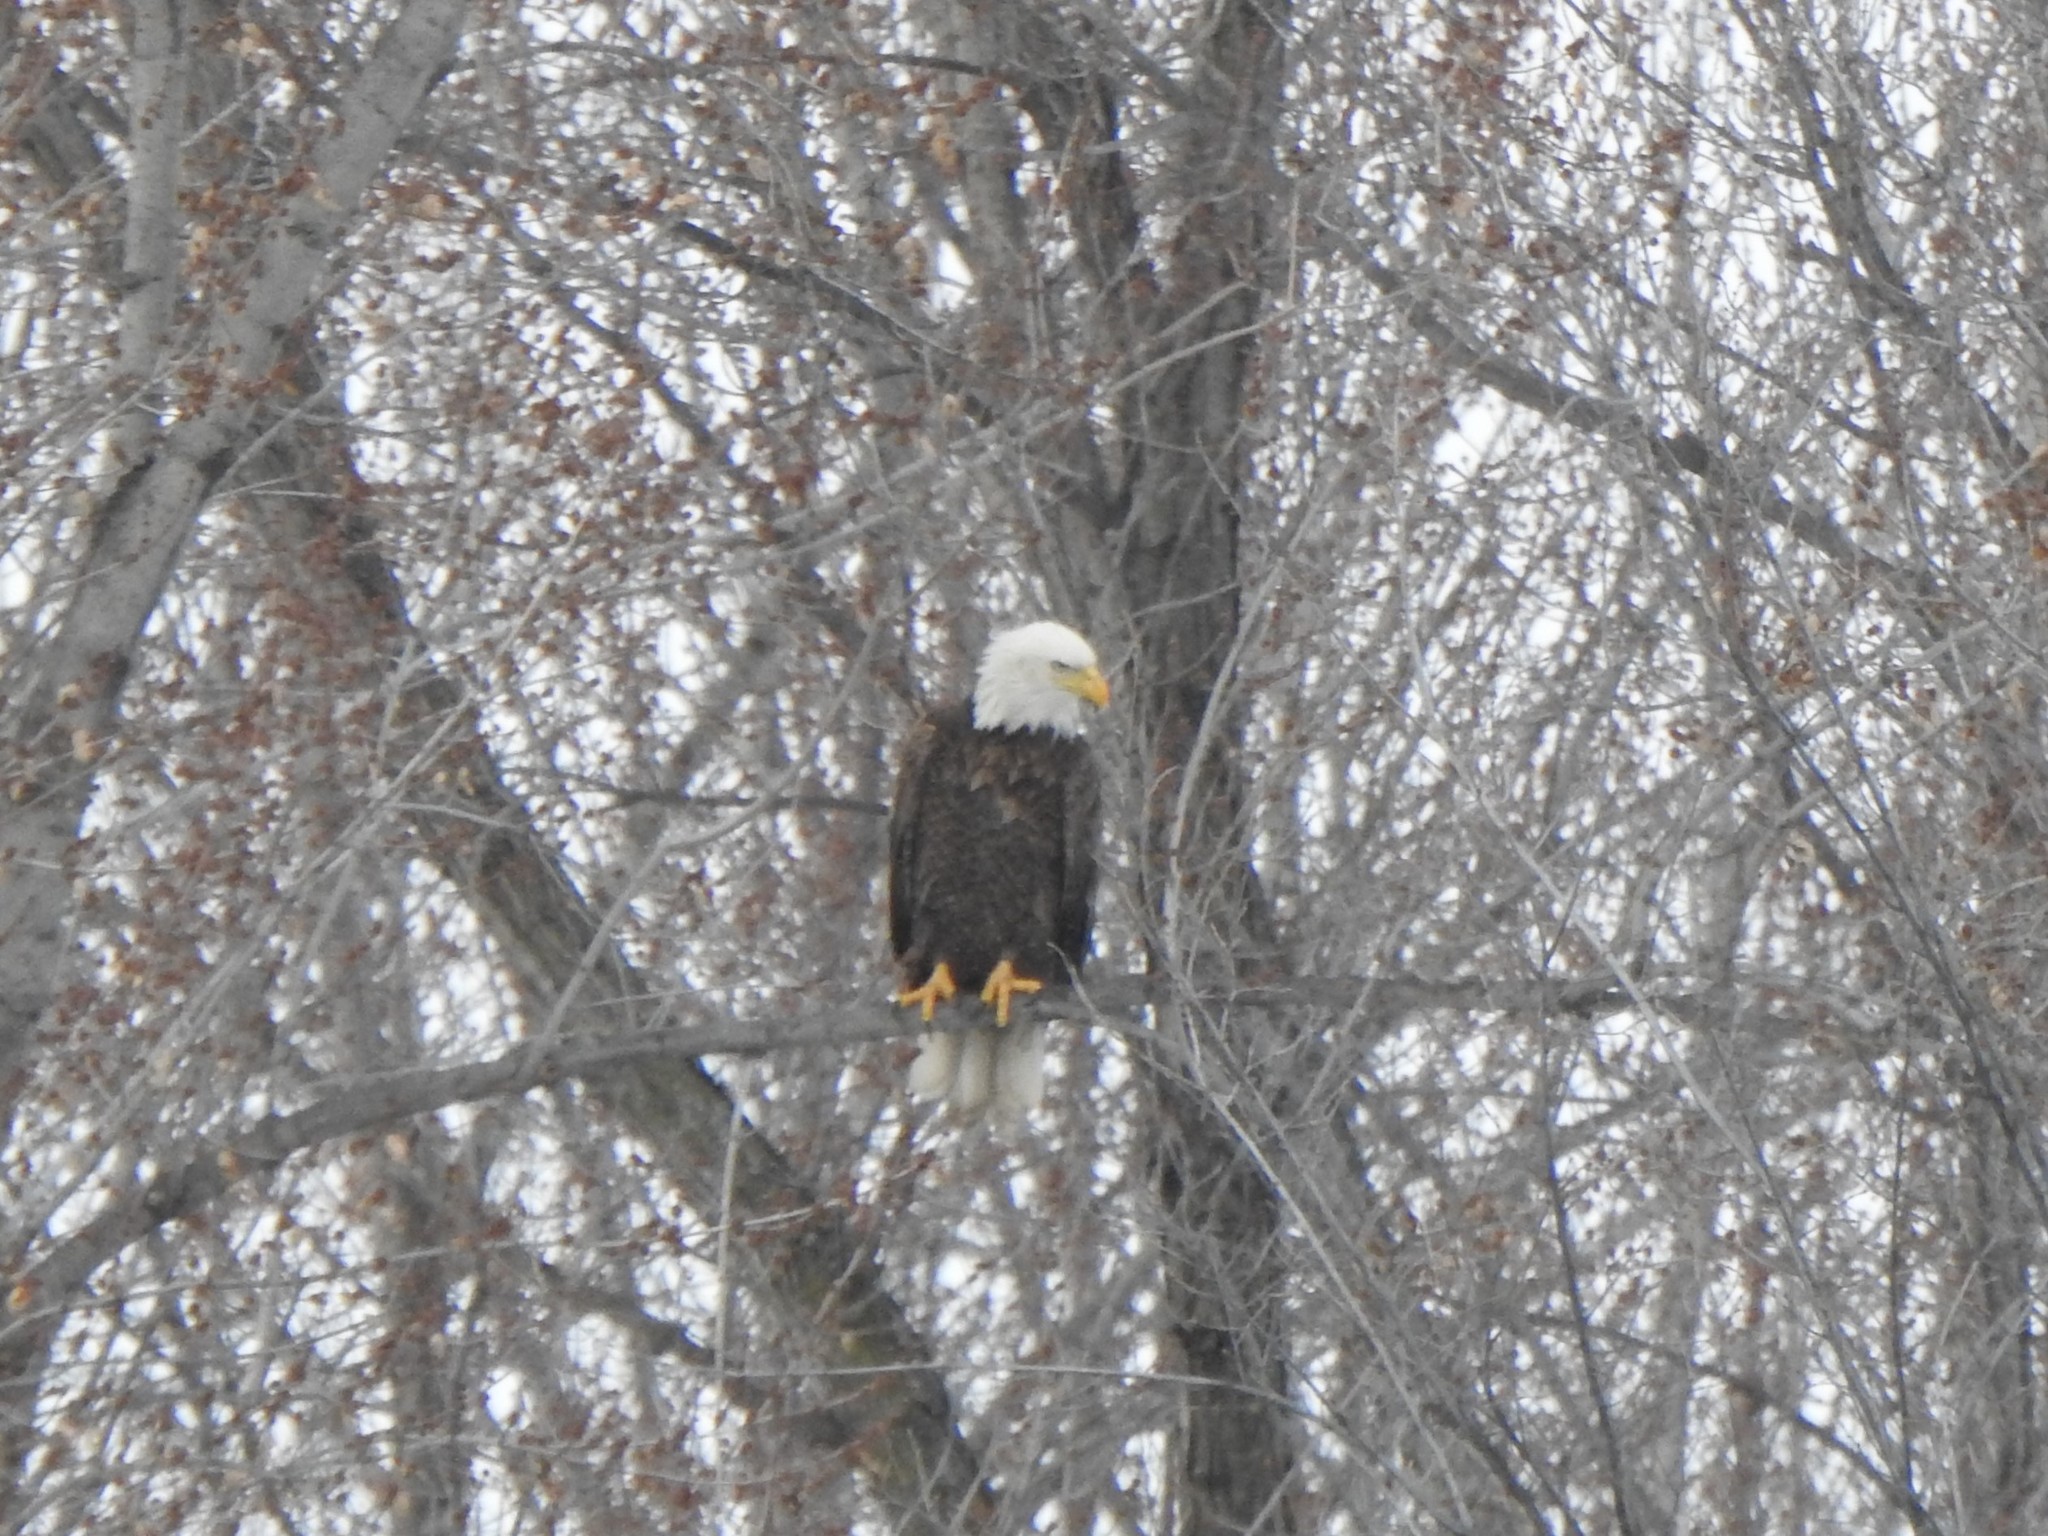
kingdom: Animalia
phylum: Chordata
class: Aves
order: Accipitriformes
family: Accipitridae
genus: Haliaeetus
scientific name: Haliaeetus leucocephalus
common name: Bald eagle
